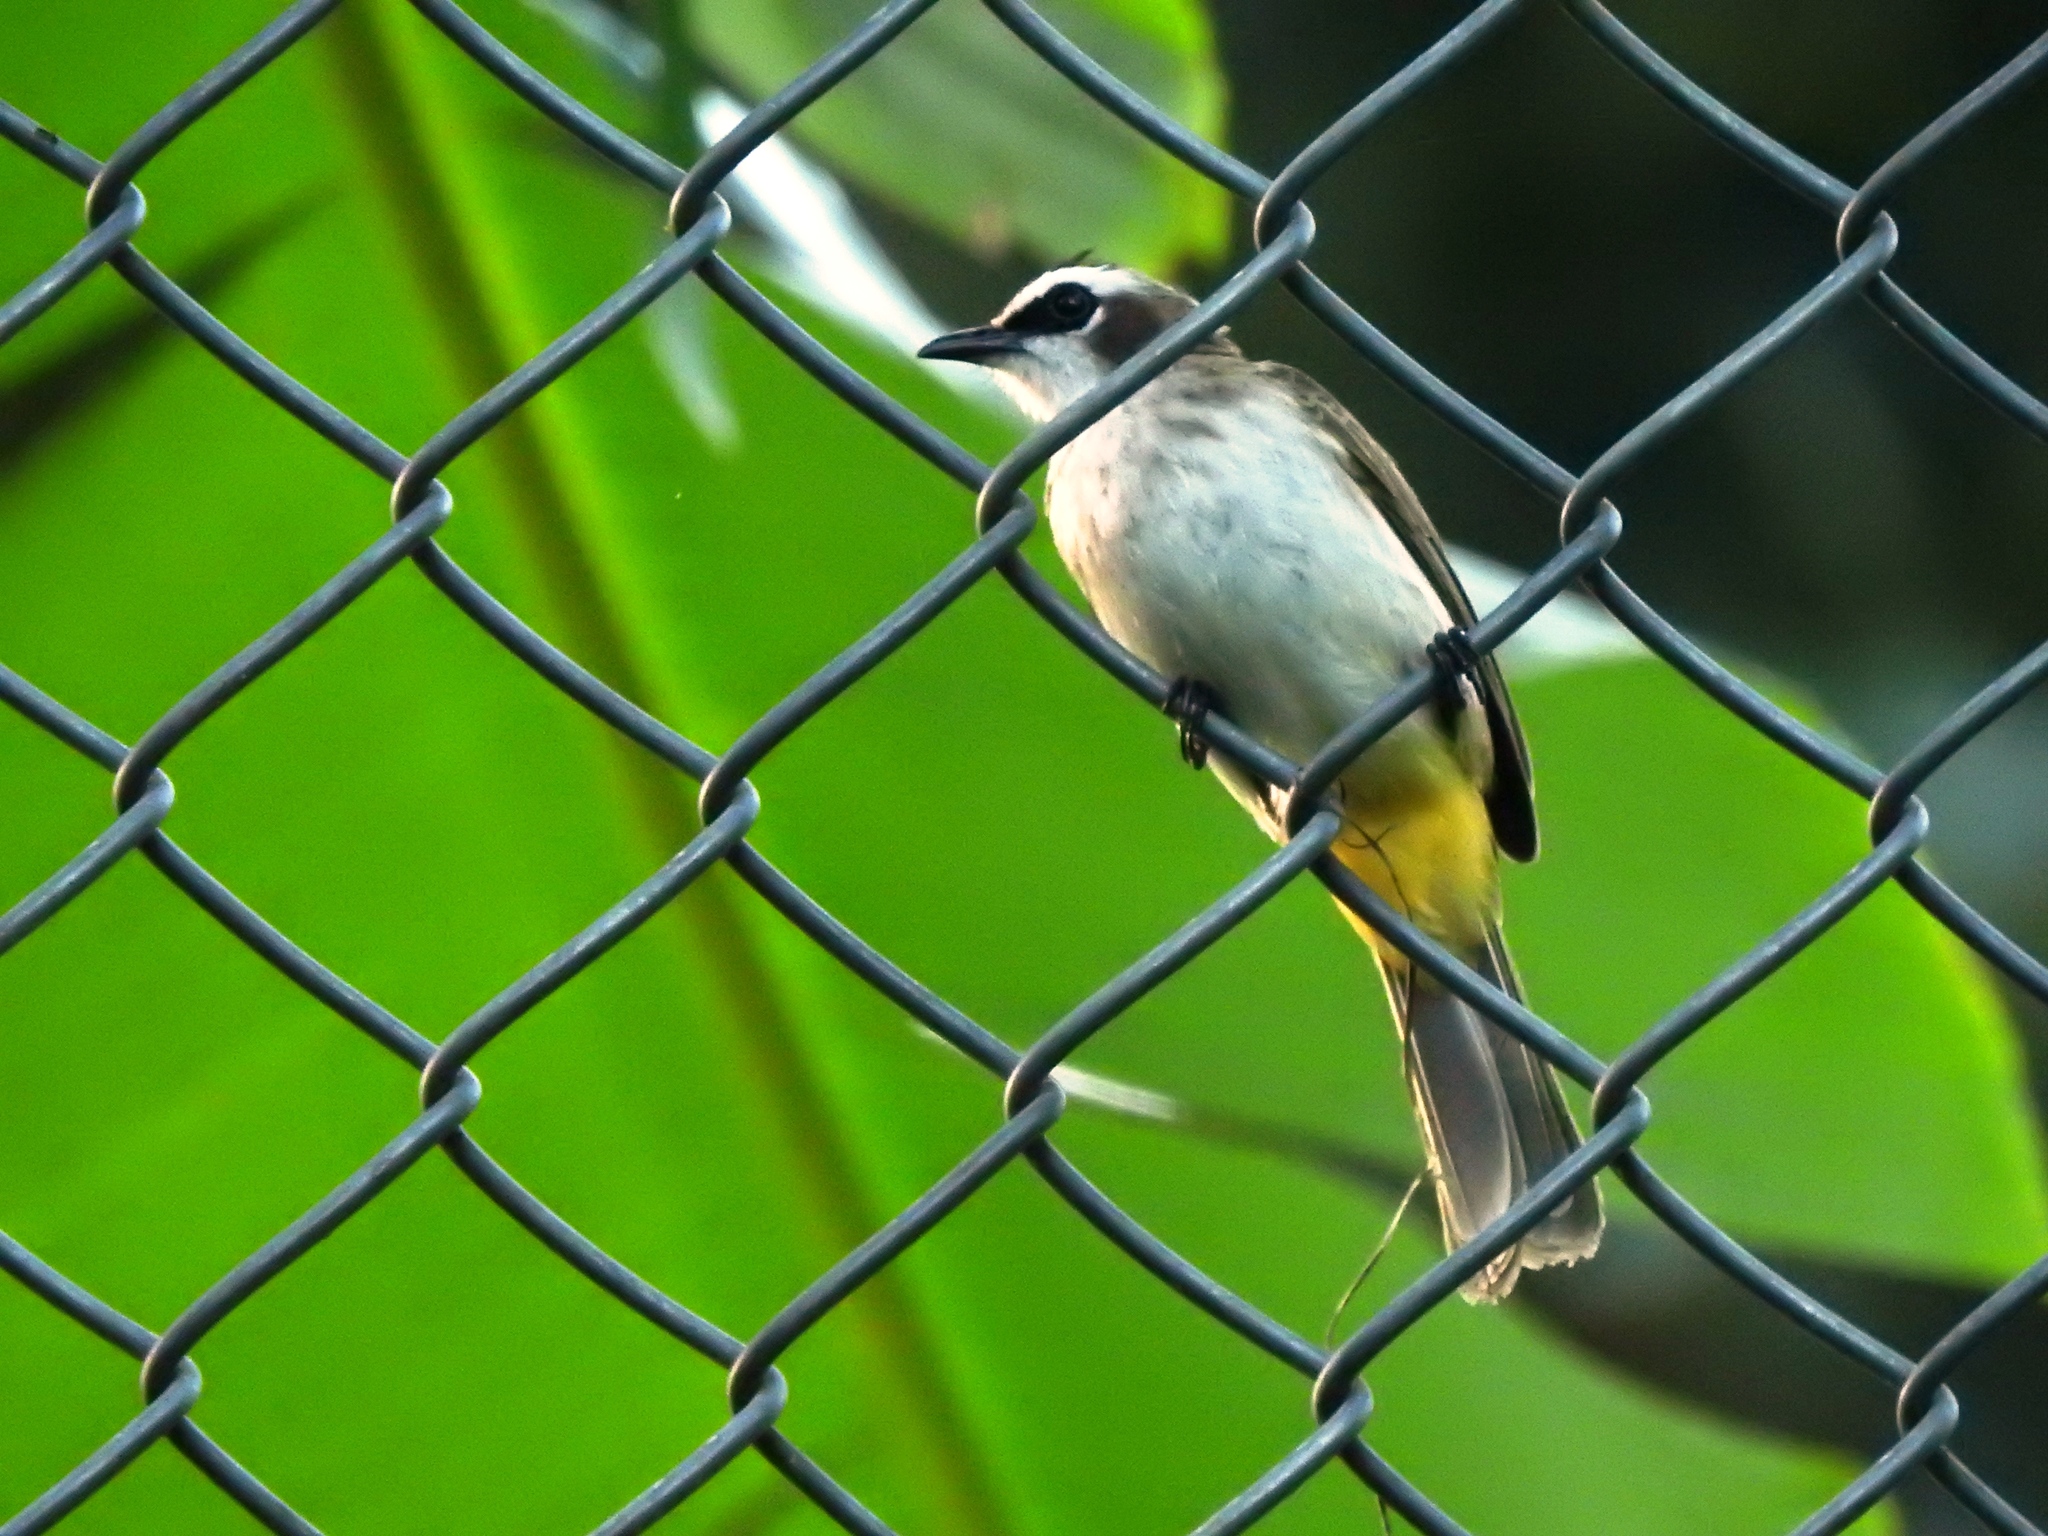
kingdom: Animalia
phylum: Chordata
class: Aves
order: Passeriformes
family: Pycnonotidae
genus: Pycnonotus
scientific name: Pycnonotus goiavier
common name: Yellow-vented bulbul
